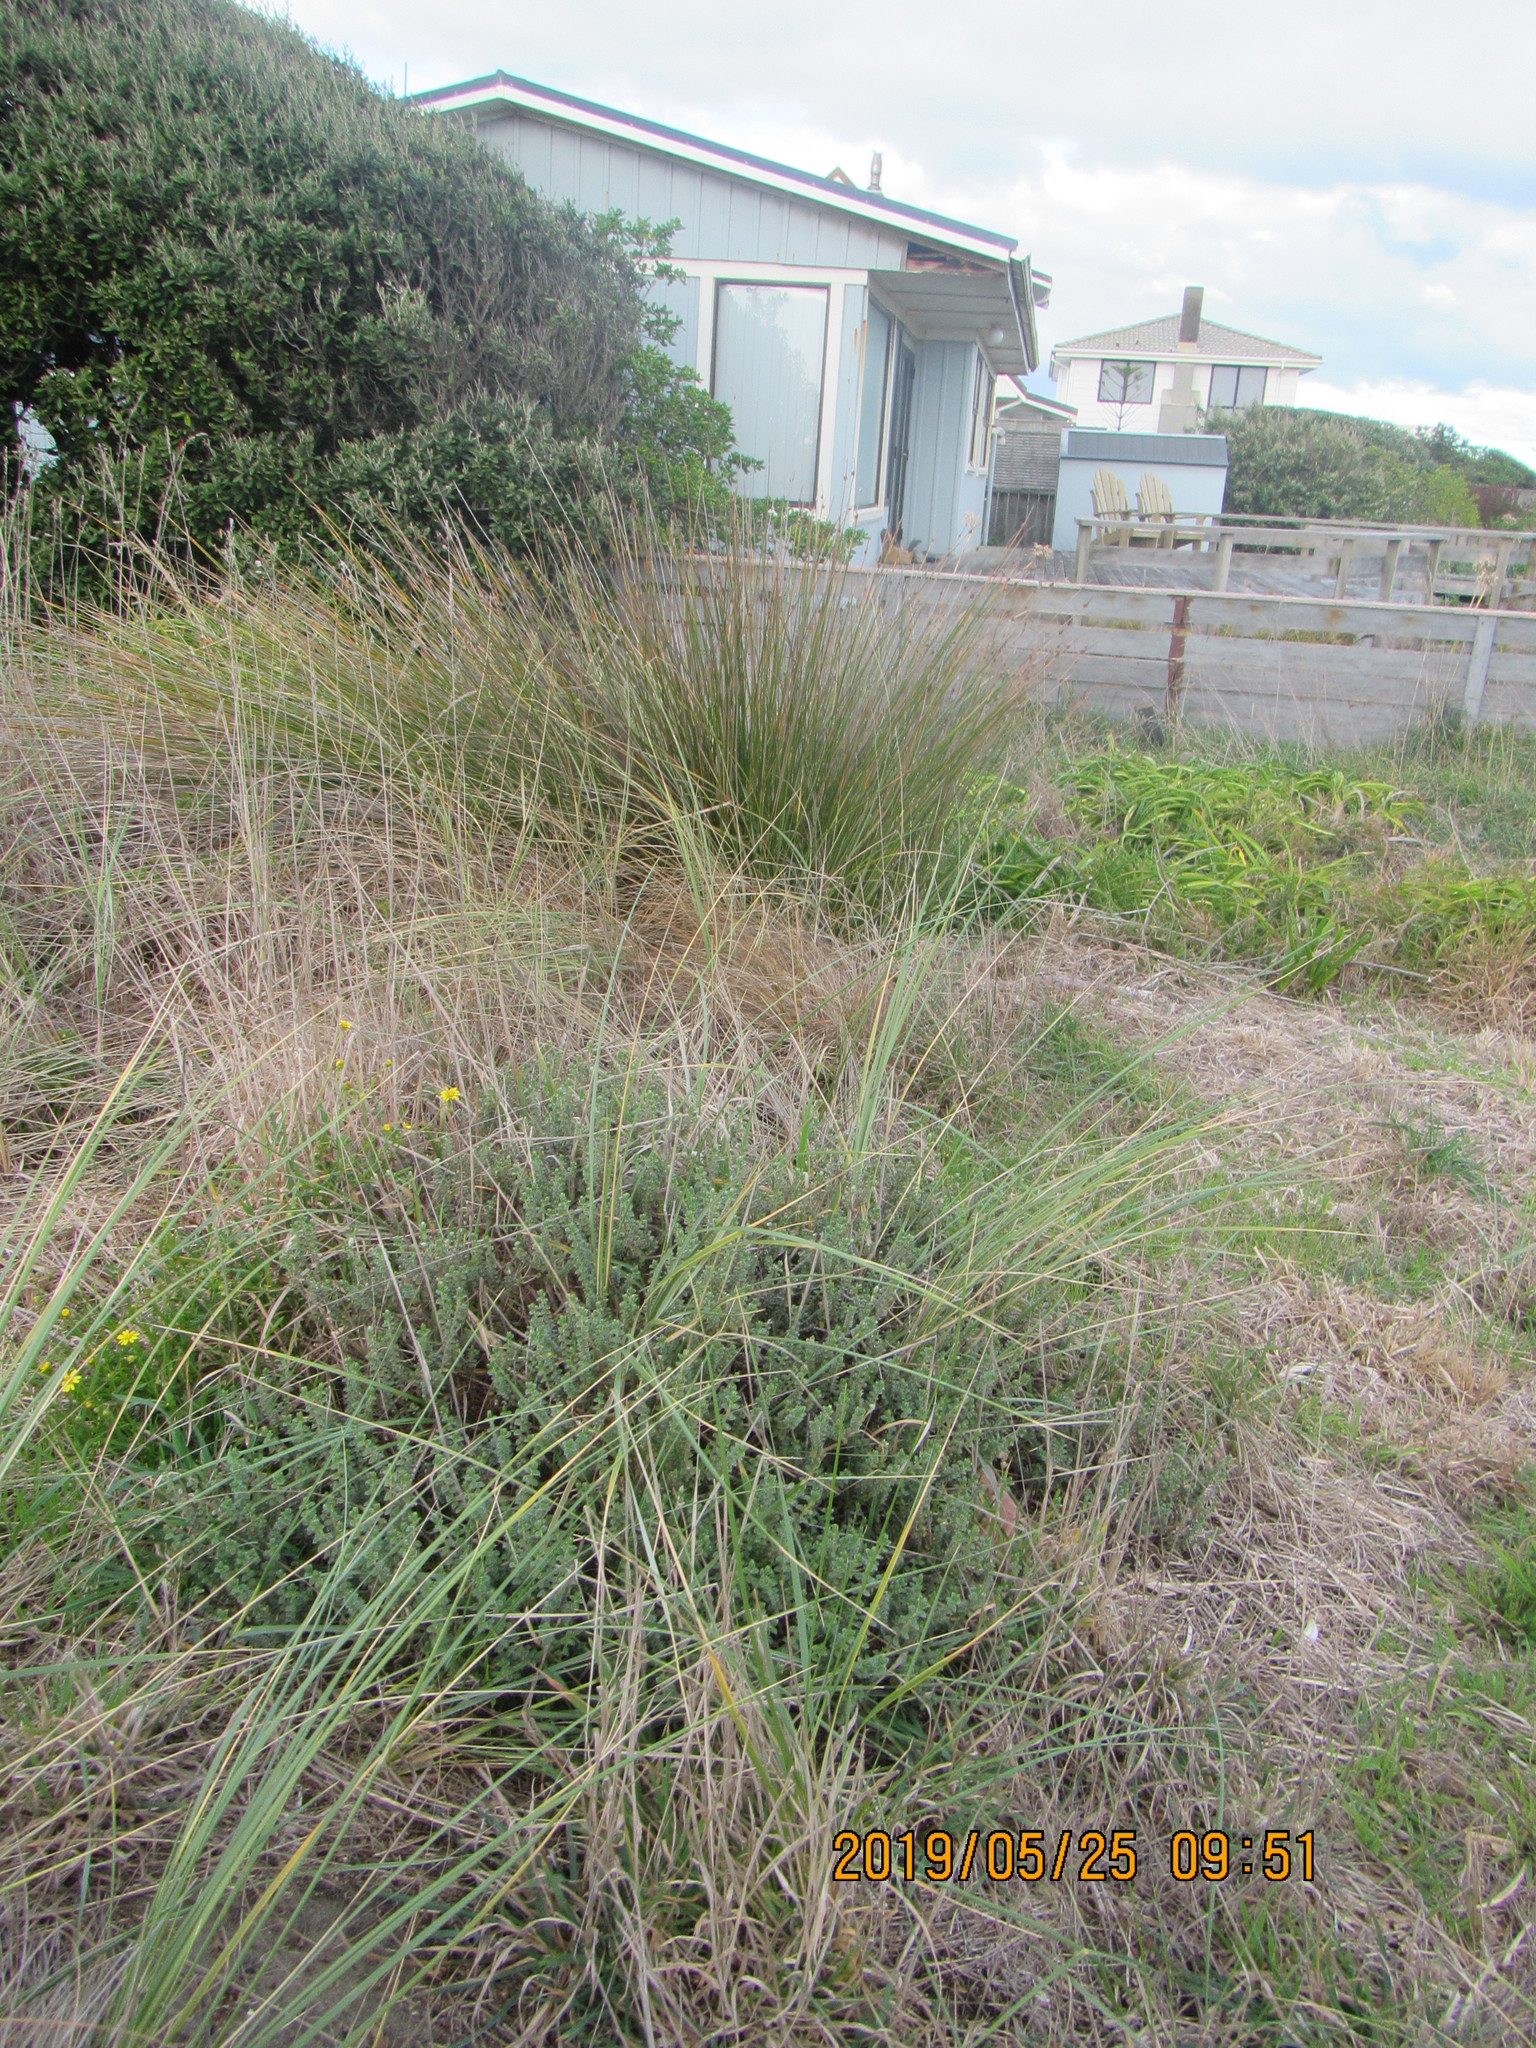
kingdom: Plantae
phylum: Tracheophyta
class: Magnoliopsida
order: Malvales
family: Thymelaeaceae
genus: Pimelea
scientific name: Pimelea villosa
